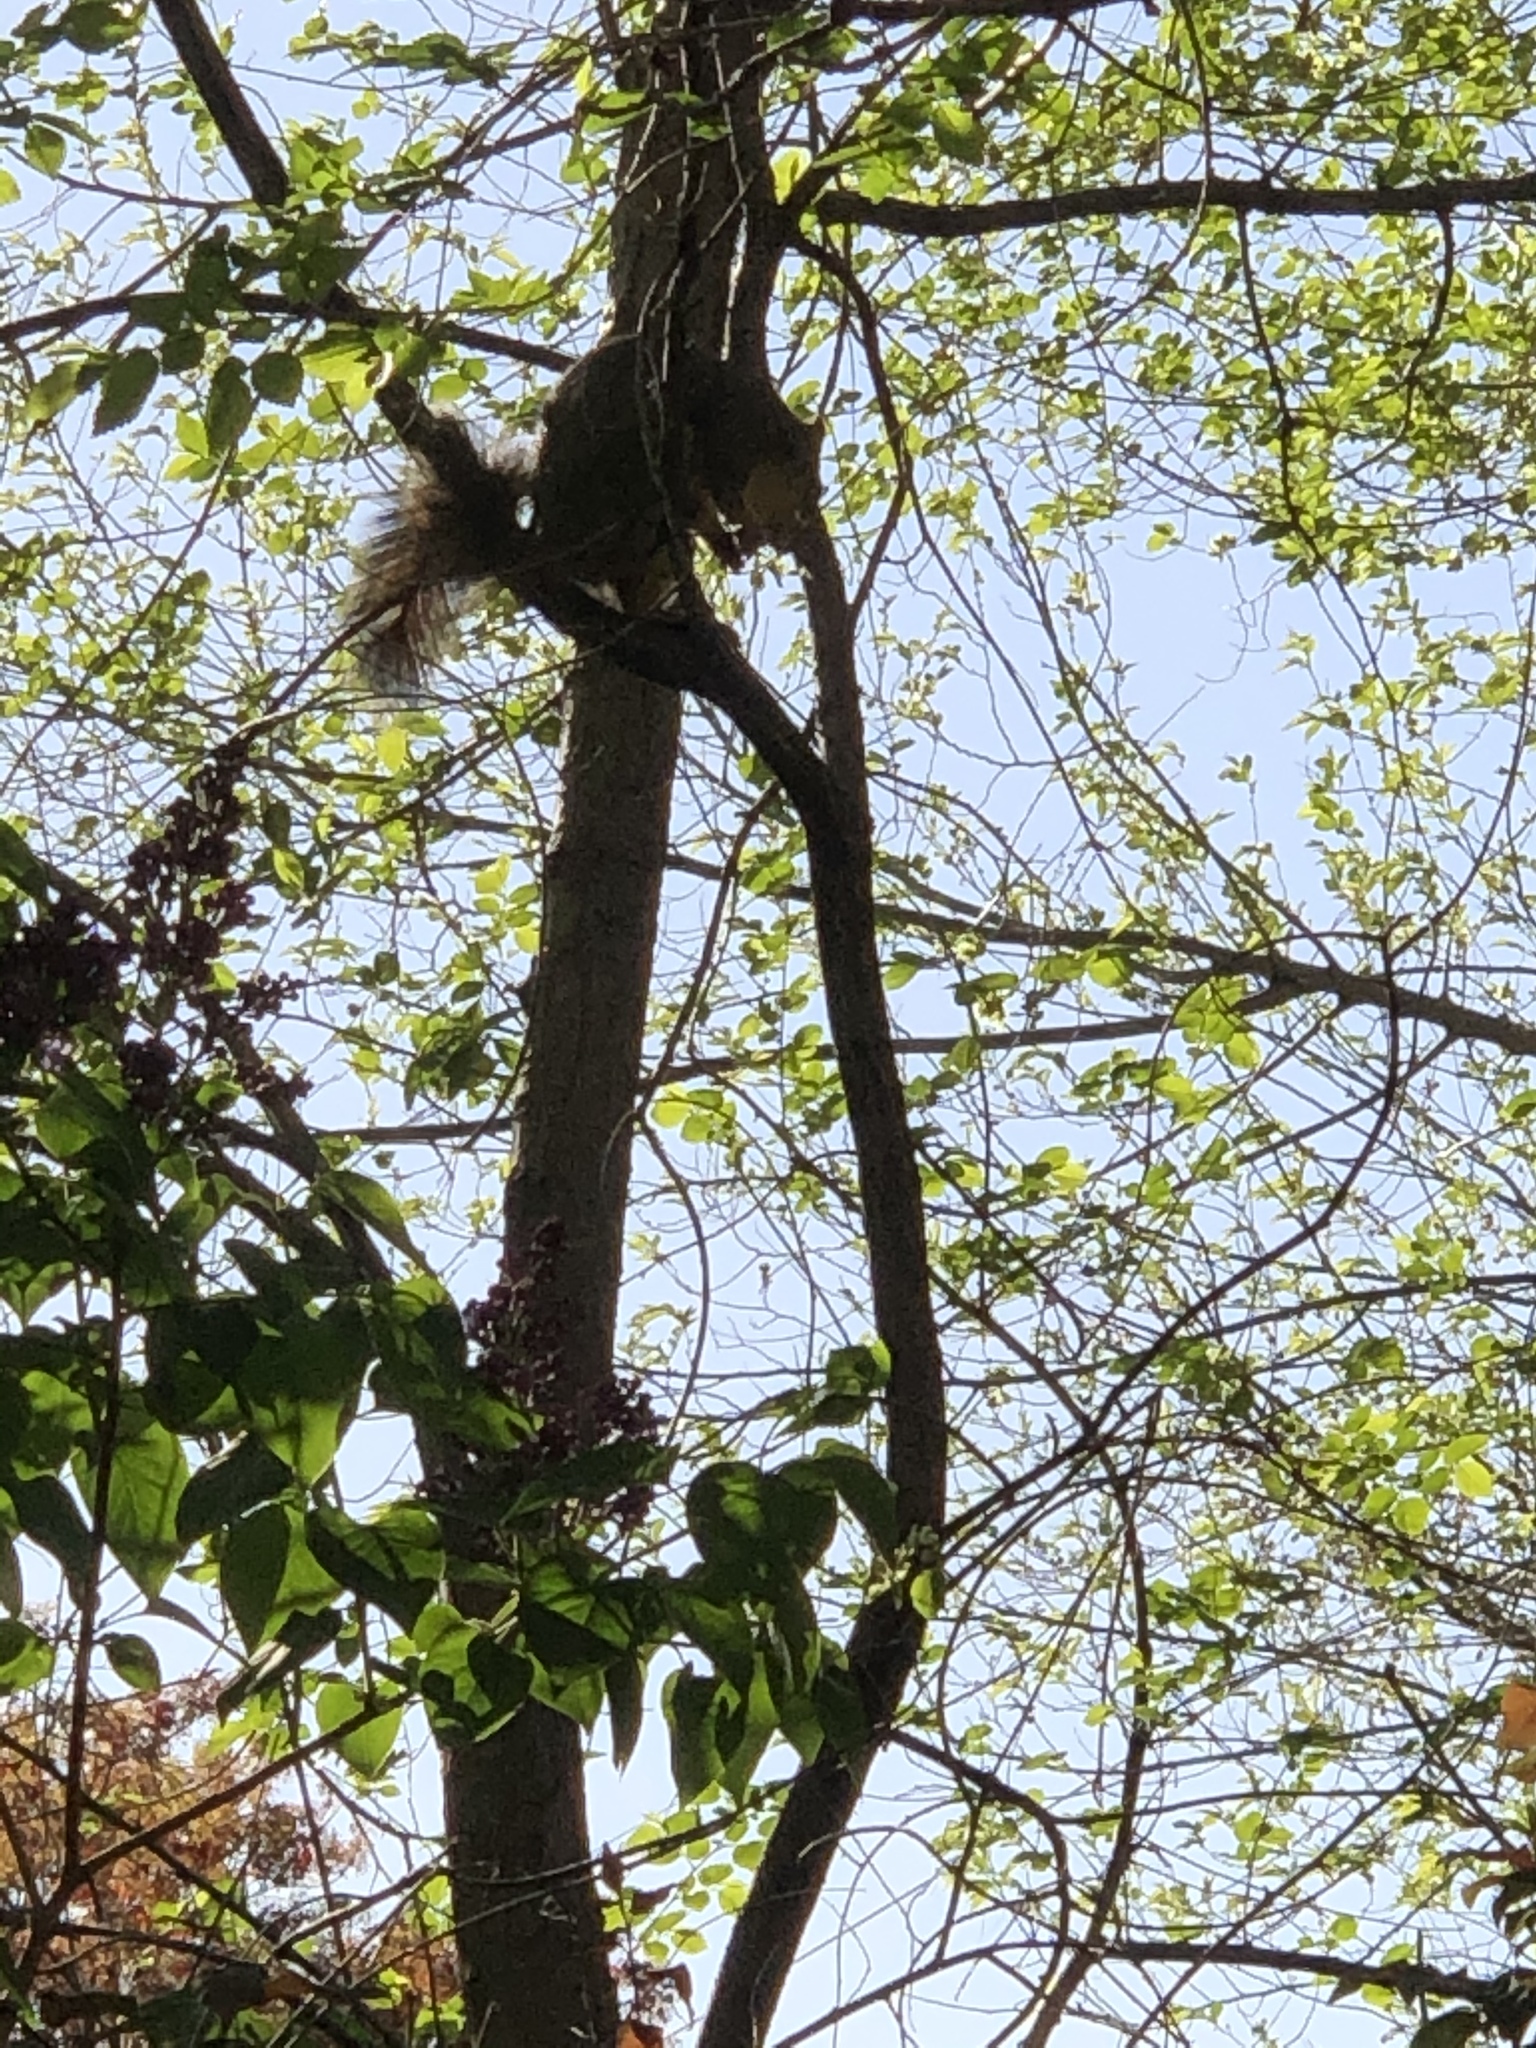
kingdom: Animalia
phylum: Chordata
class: Mammalia
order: Rodentia
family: Sciuridae
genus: Sciurus
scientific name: Sciurus niger
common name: Fox squirrel
